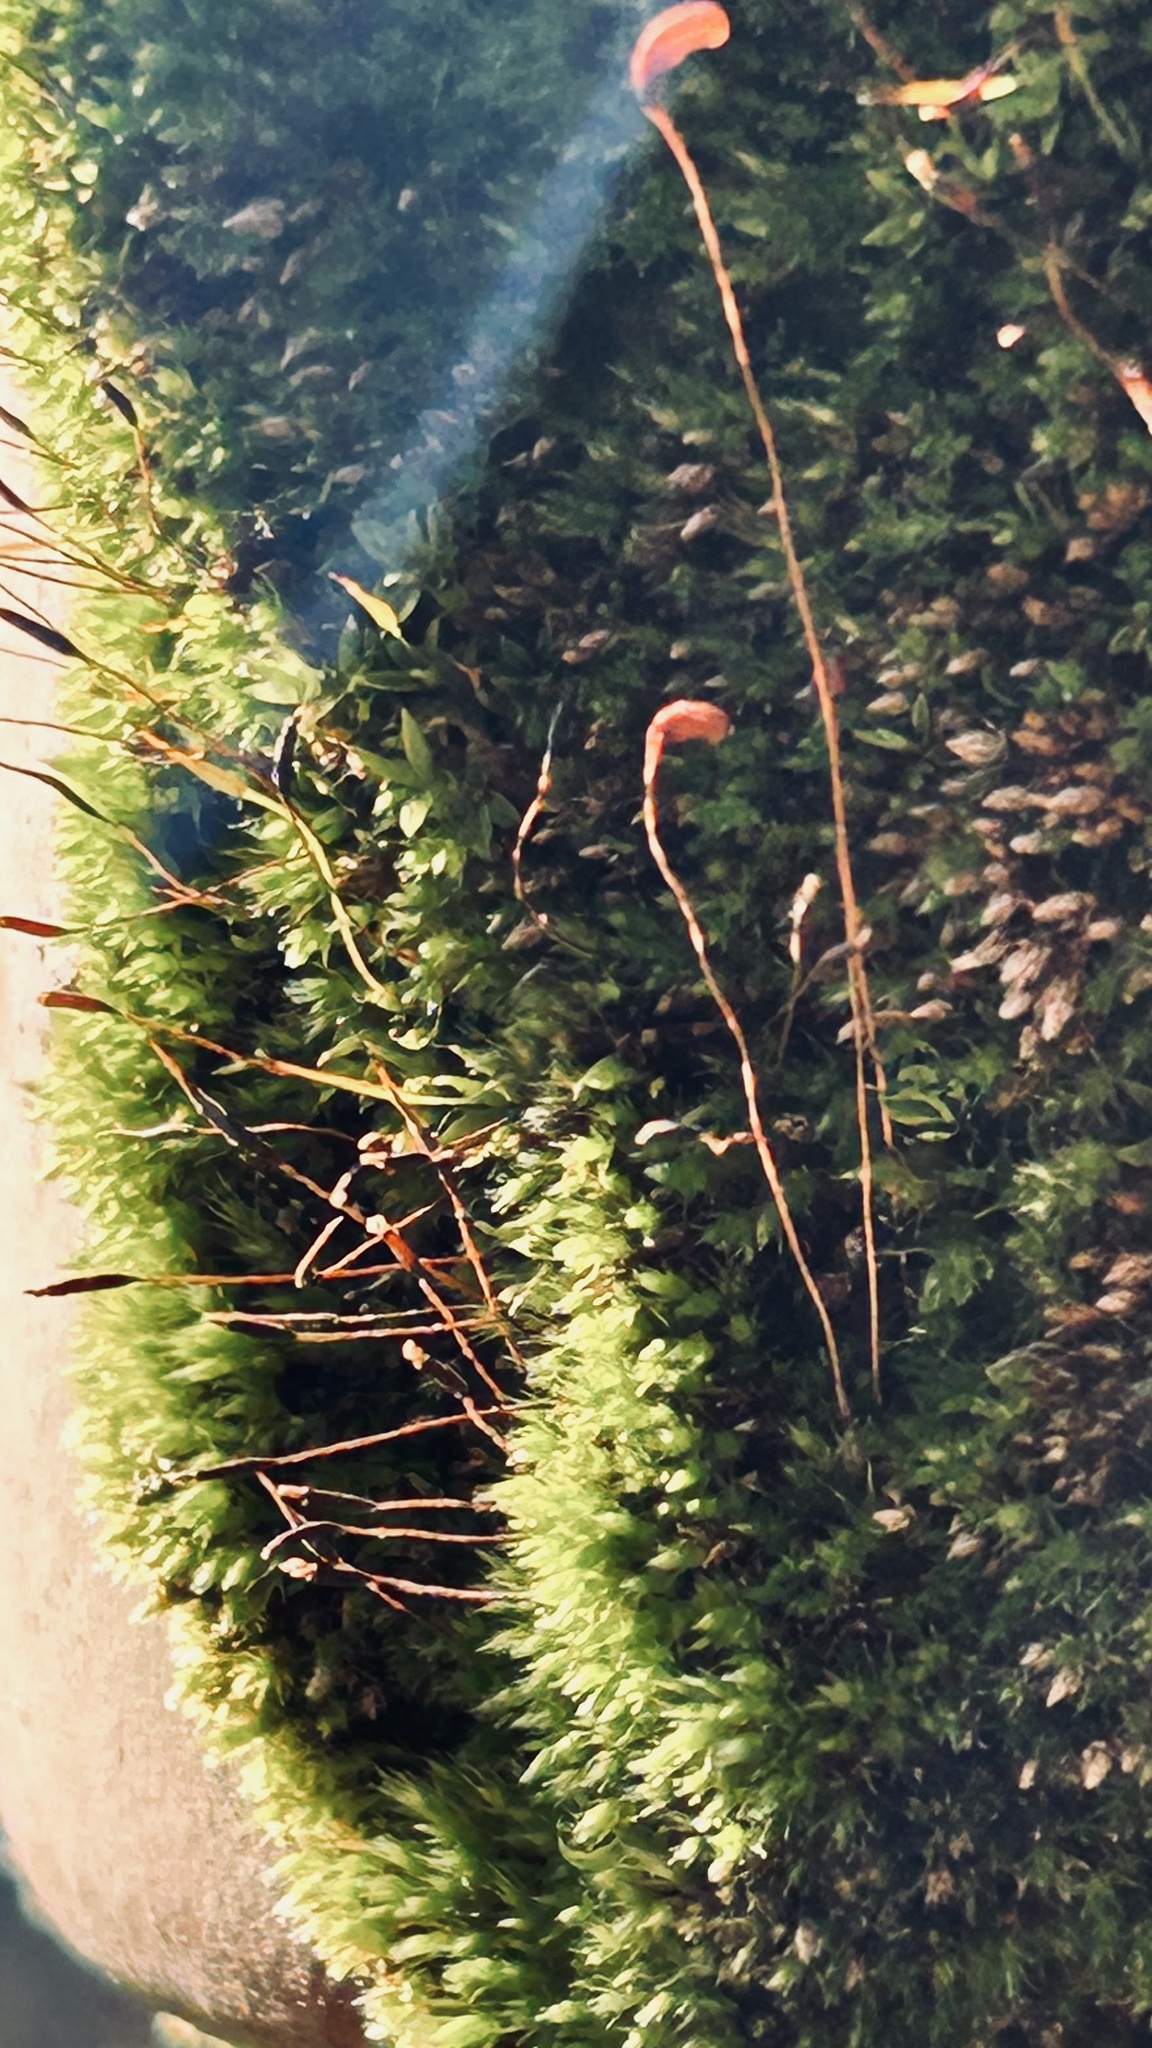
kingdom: Plantae
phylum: Bryophyta
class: Bryopsida
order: Pottiales
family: Pottiaceae
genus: Tortula
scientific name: Tortula muralis
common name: Wall screw-moss
